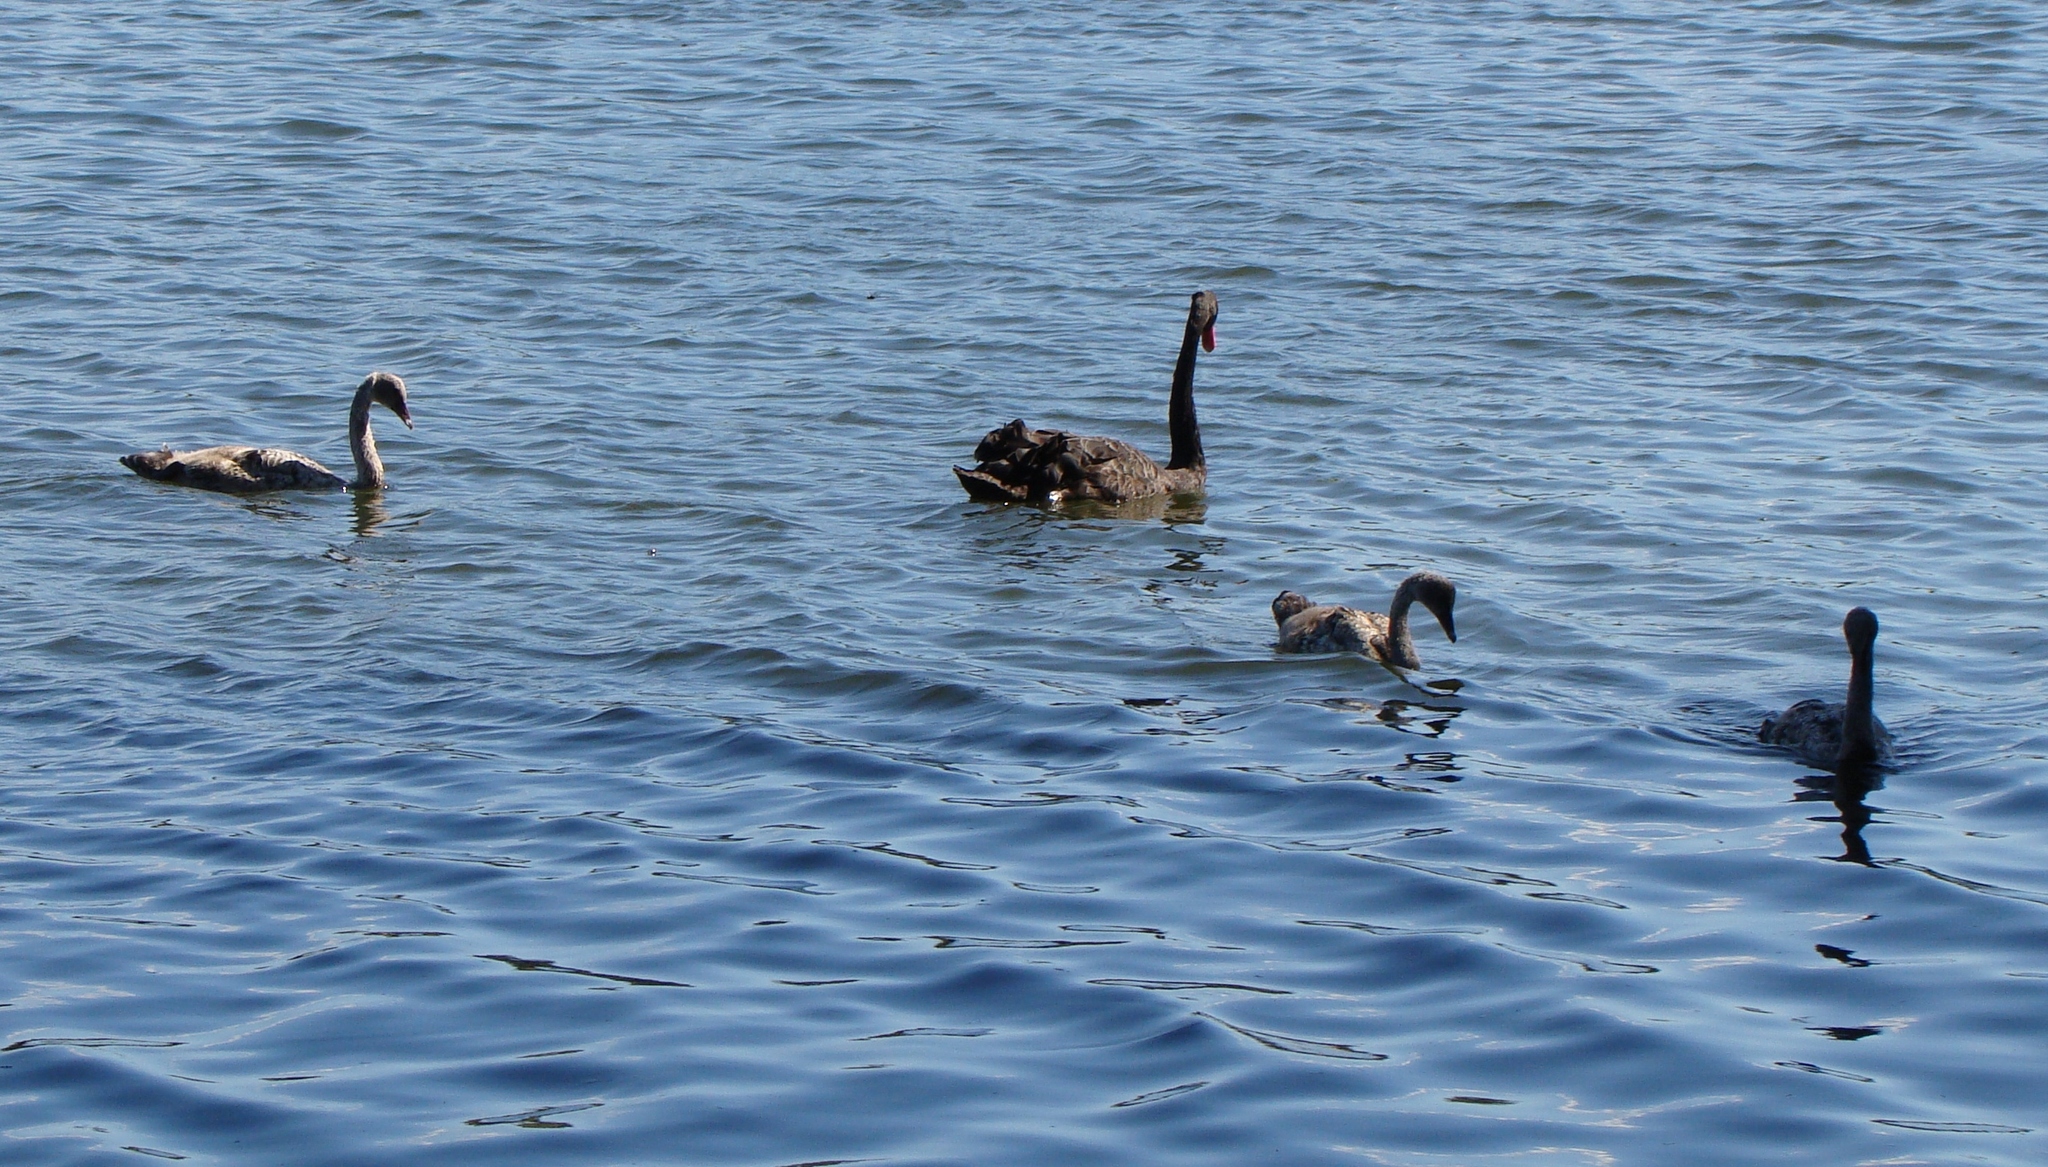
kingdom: Animalia
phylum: Chordata
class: Aves
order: Anseriformes
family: Anatidae
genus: Cygnus
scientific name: Cygnus atratus
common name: Black swan
